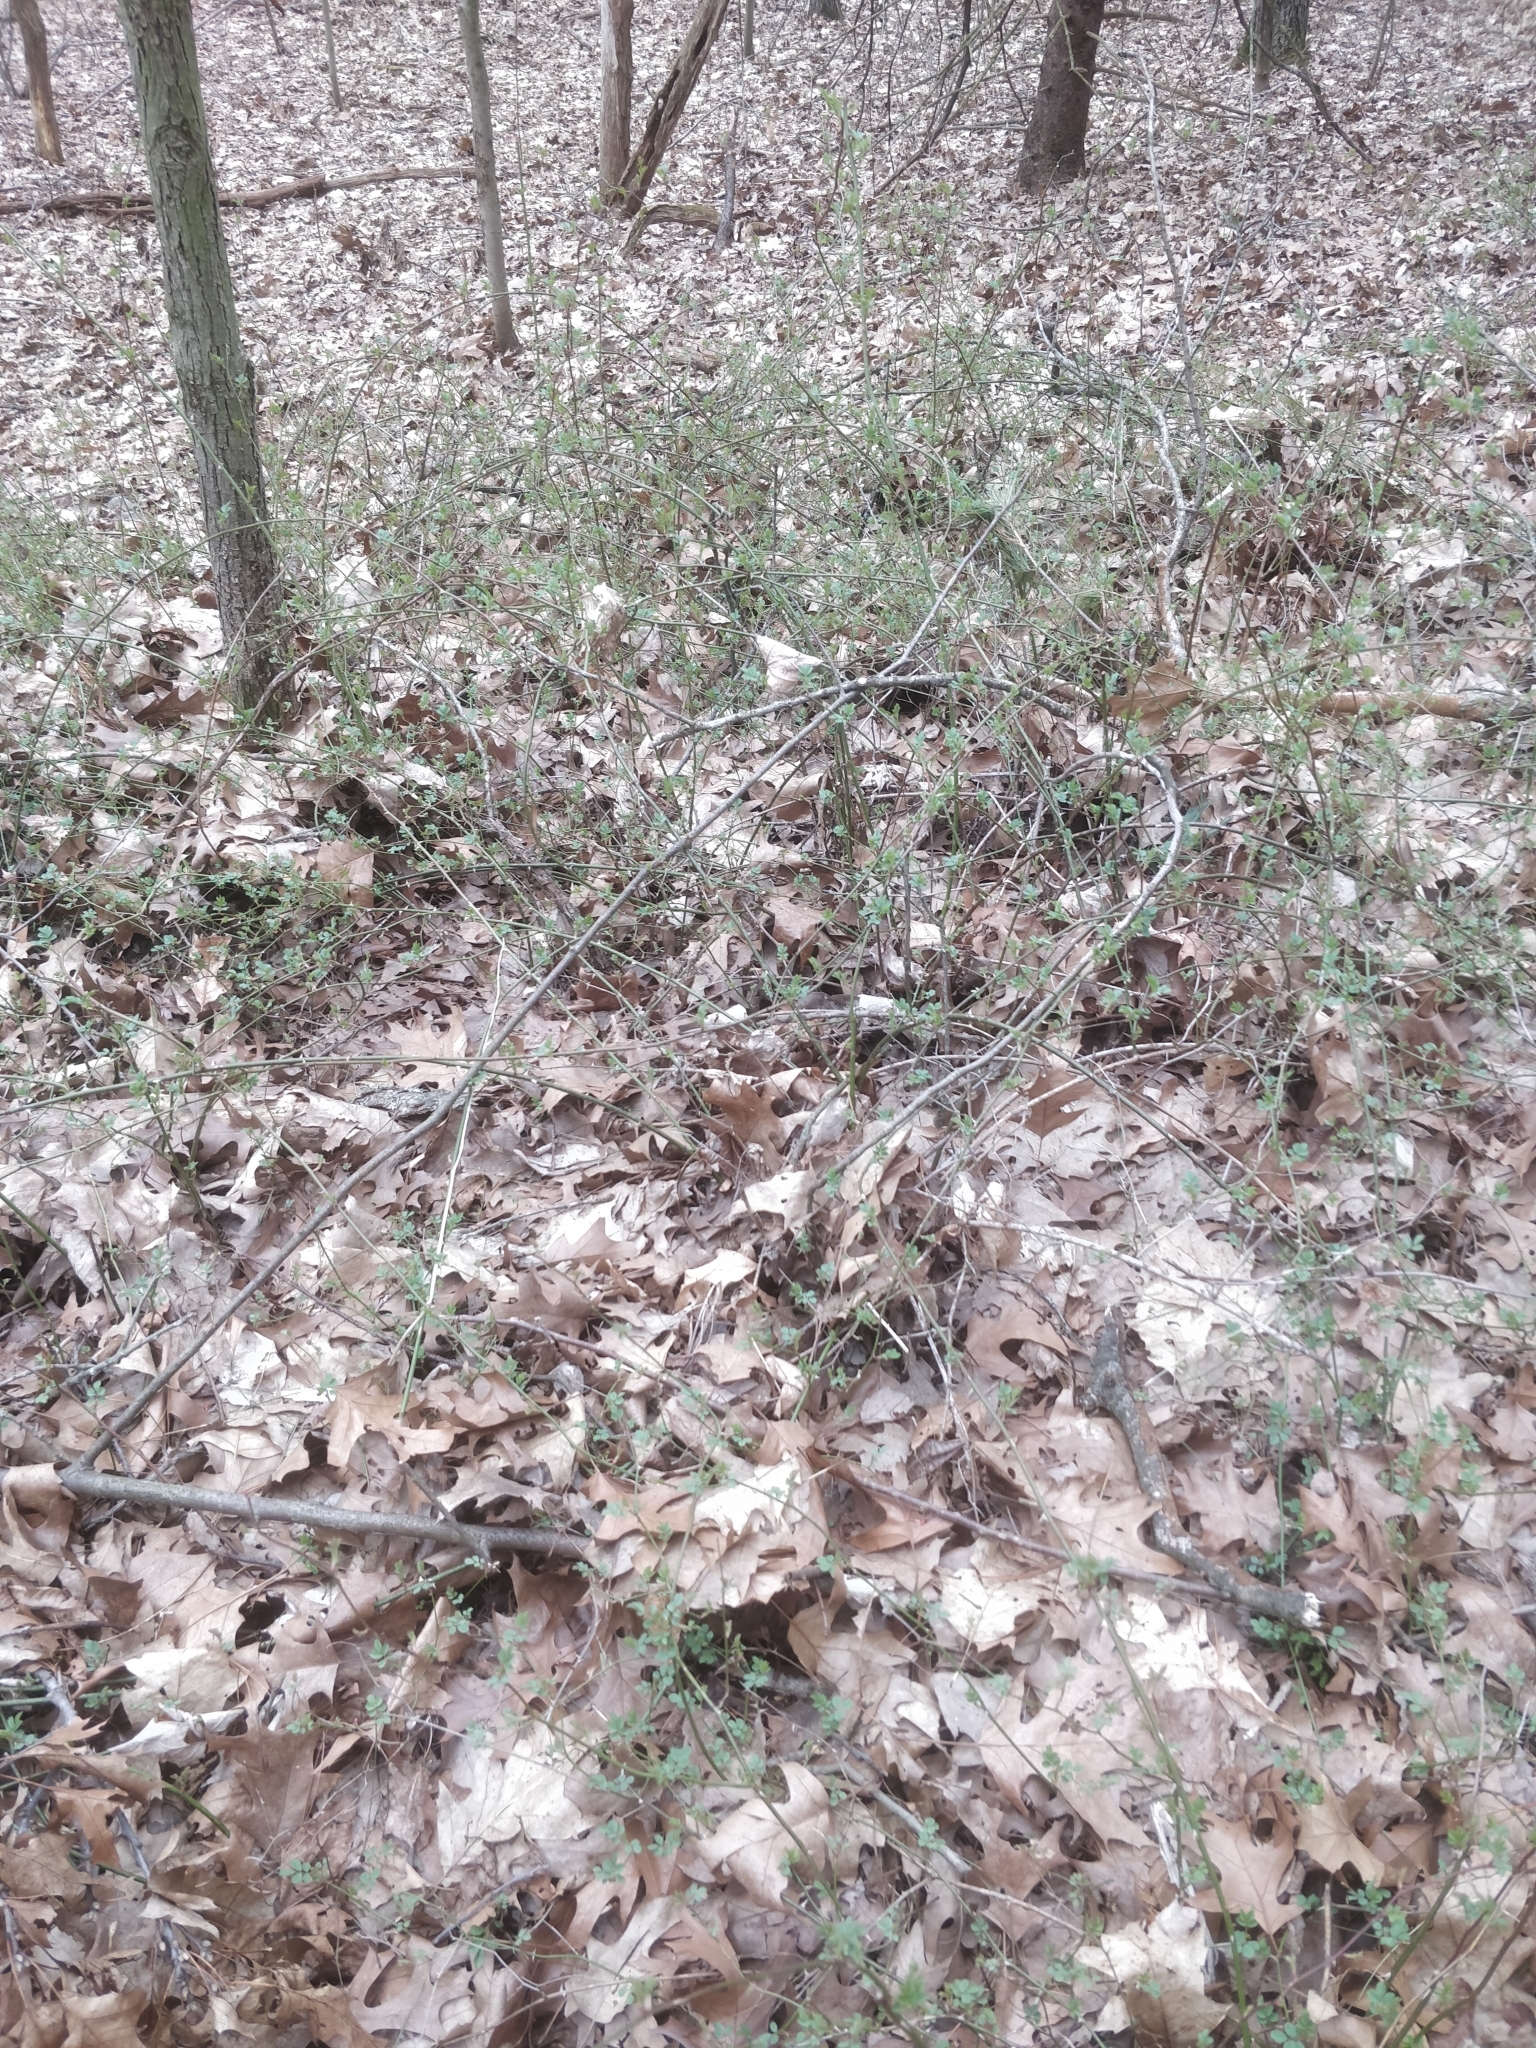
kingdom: Plantae
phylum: Tracheophyta
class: Magnoliopsida
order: Rosales
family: Rosaceae
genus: Rosa
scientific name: Rosa multiflora
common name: Multiflora rose
